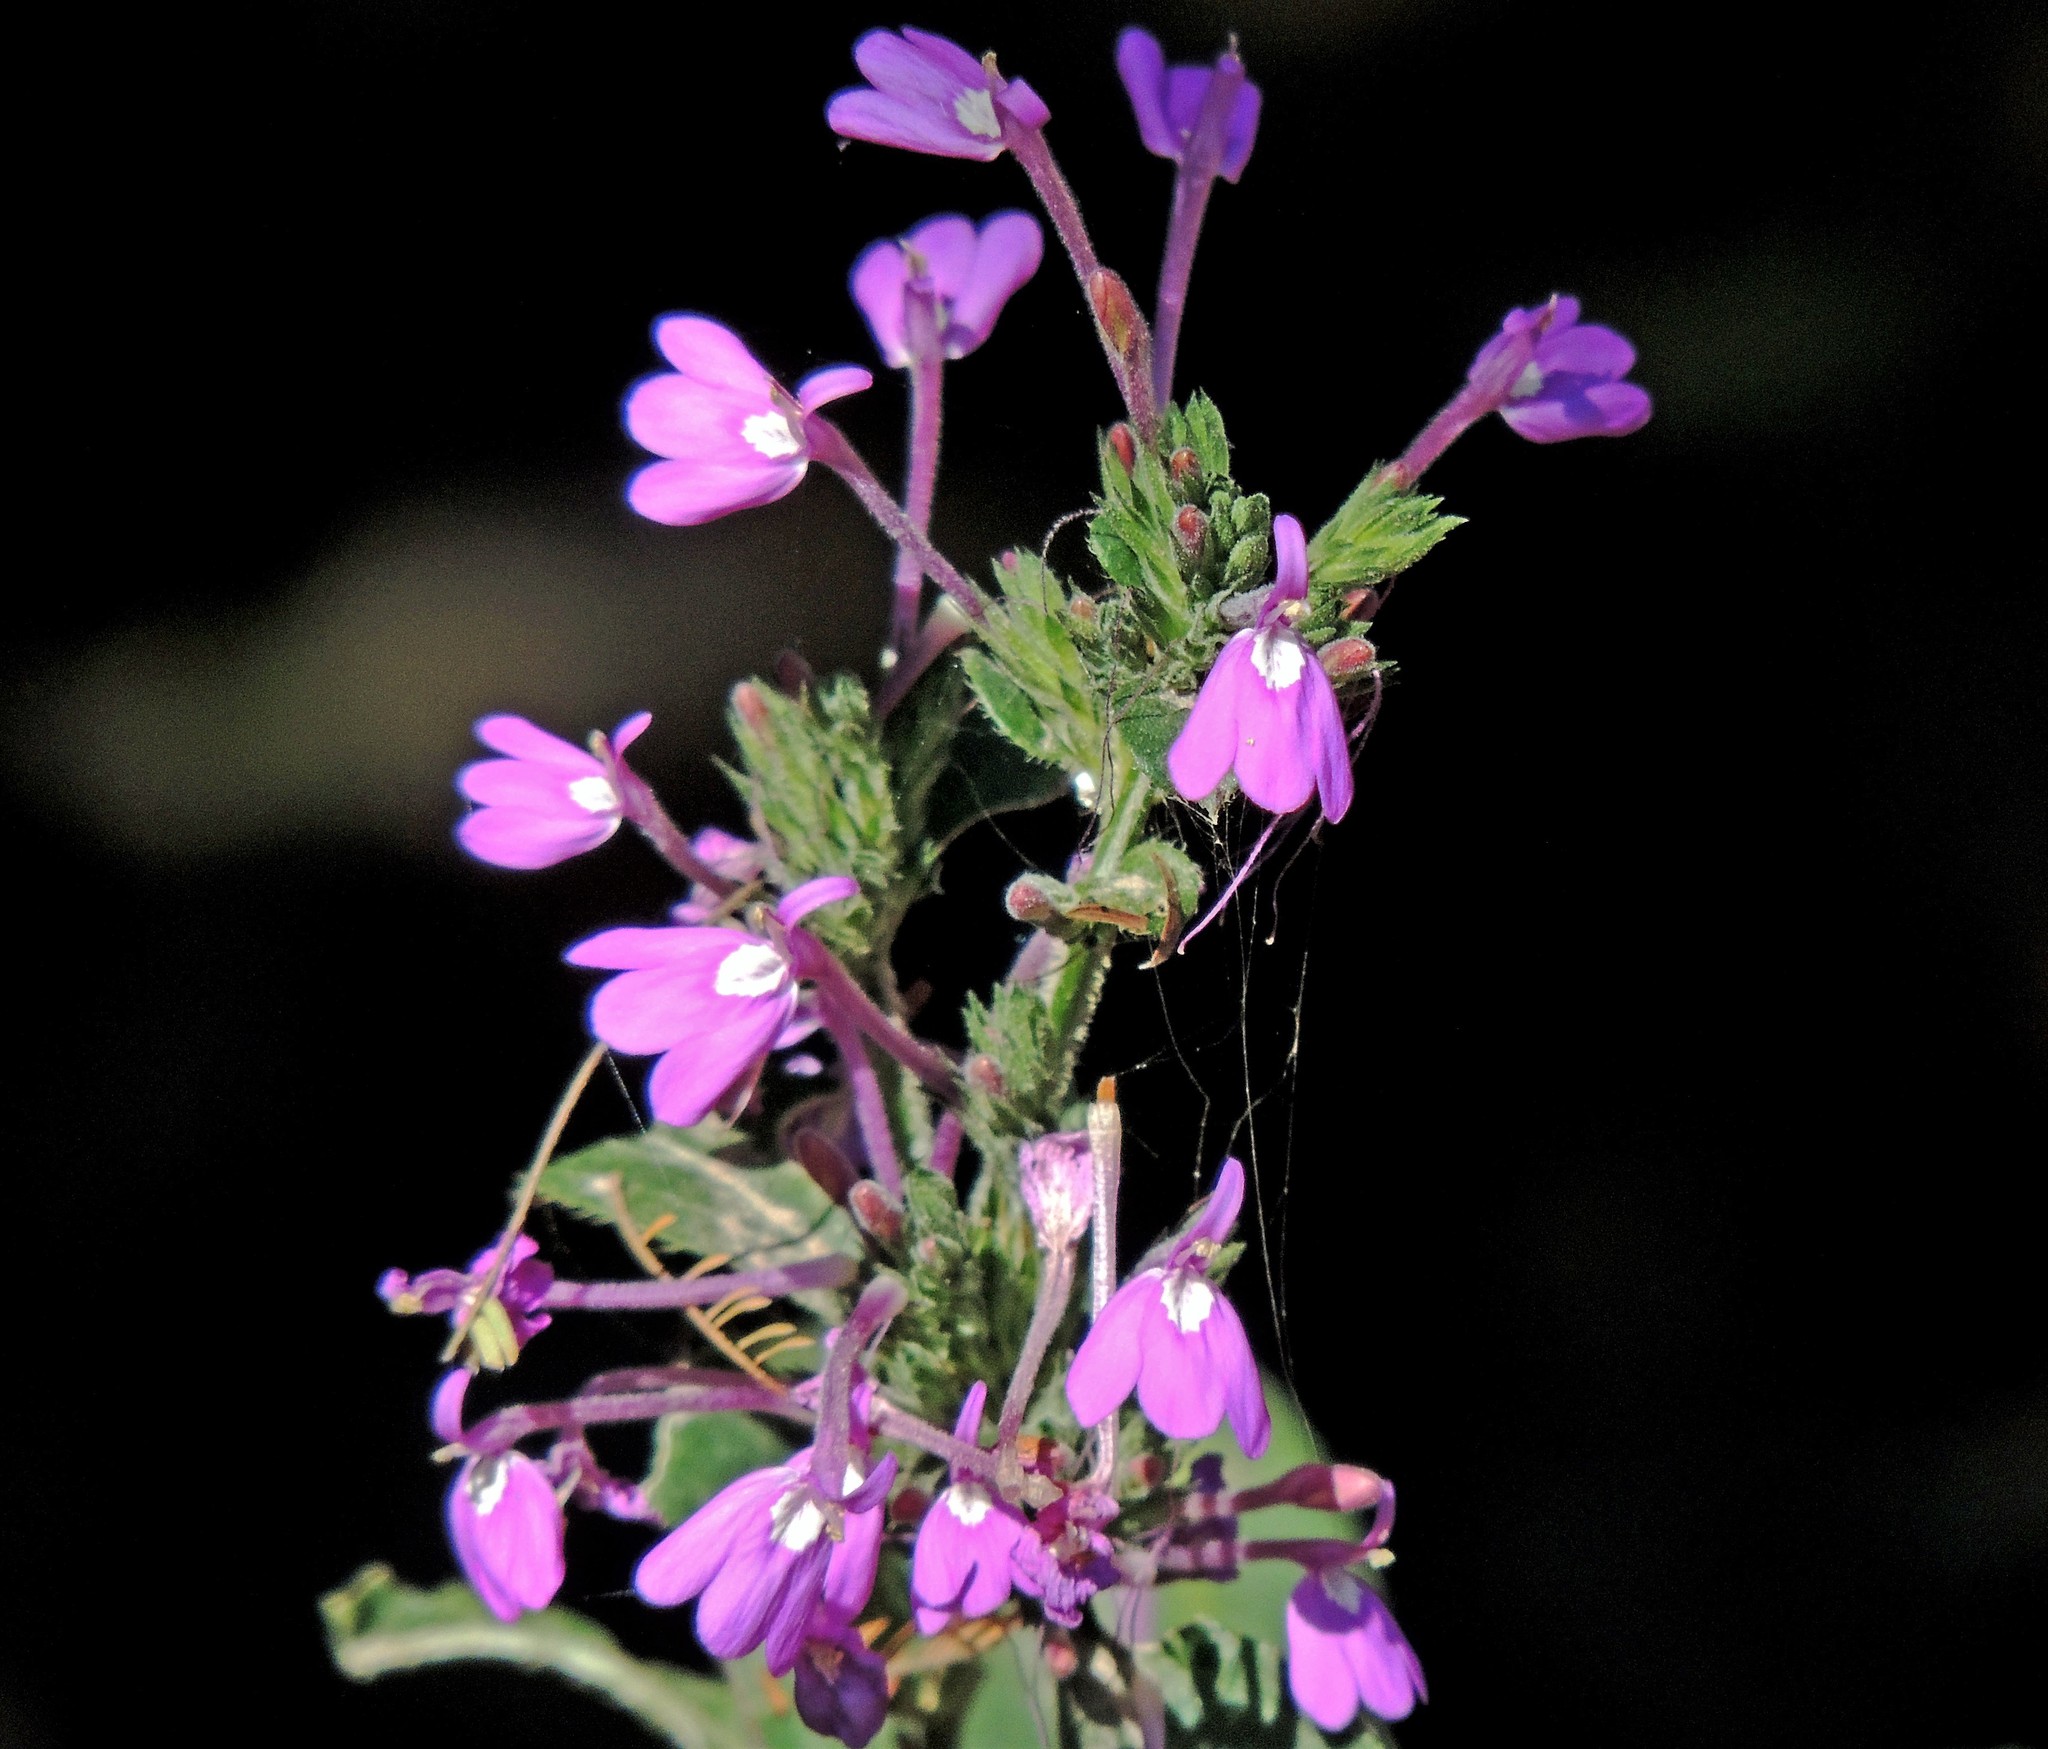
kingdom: Plantae
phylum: Tracheophyta
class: Magnoliopsida
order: Lamiales
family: Acanthaceae
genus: Justicia
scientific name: Justicia goudotii
